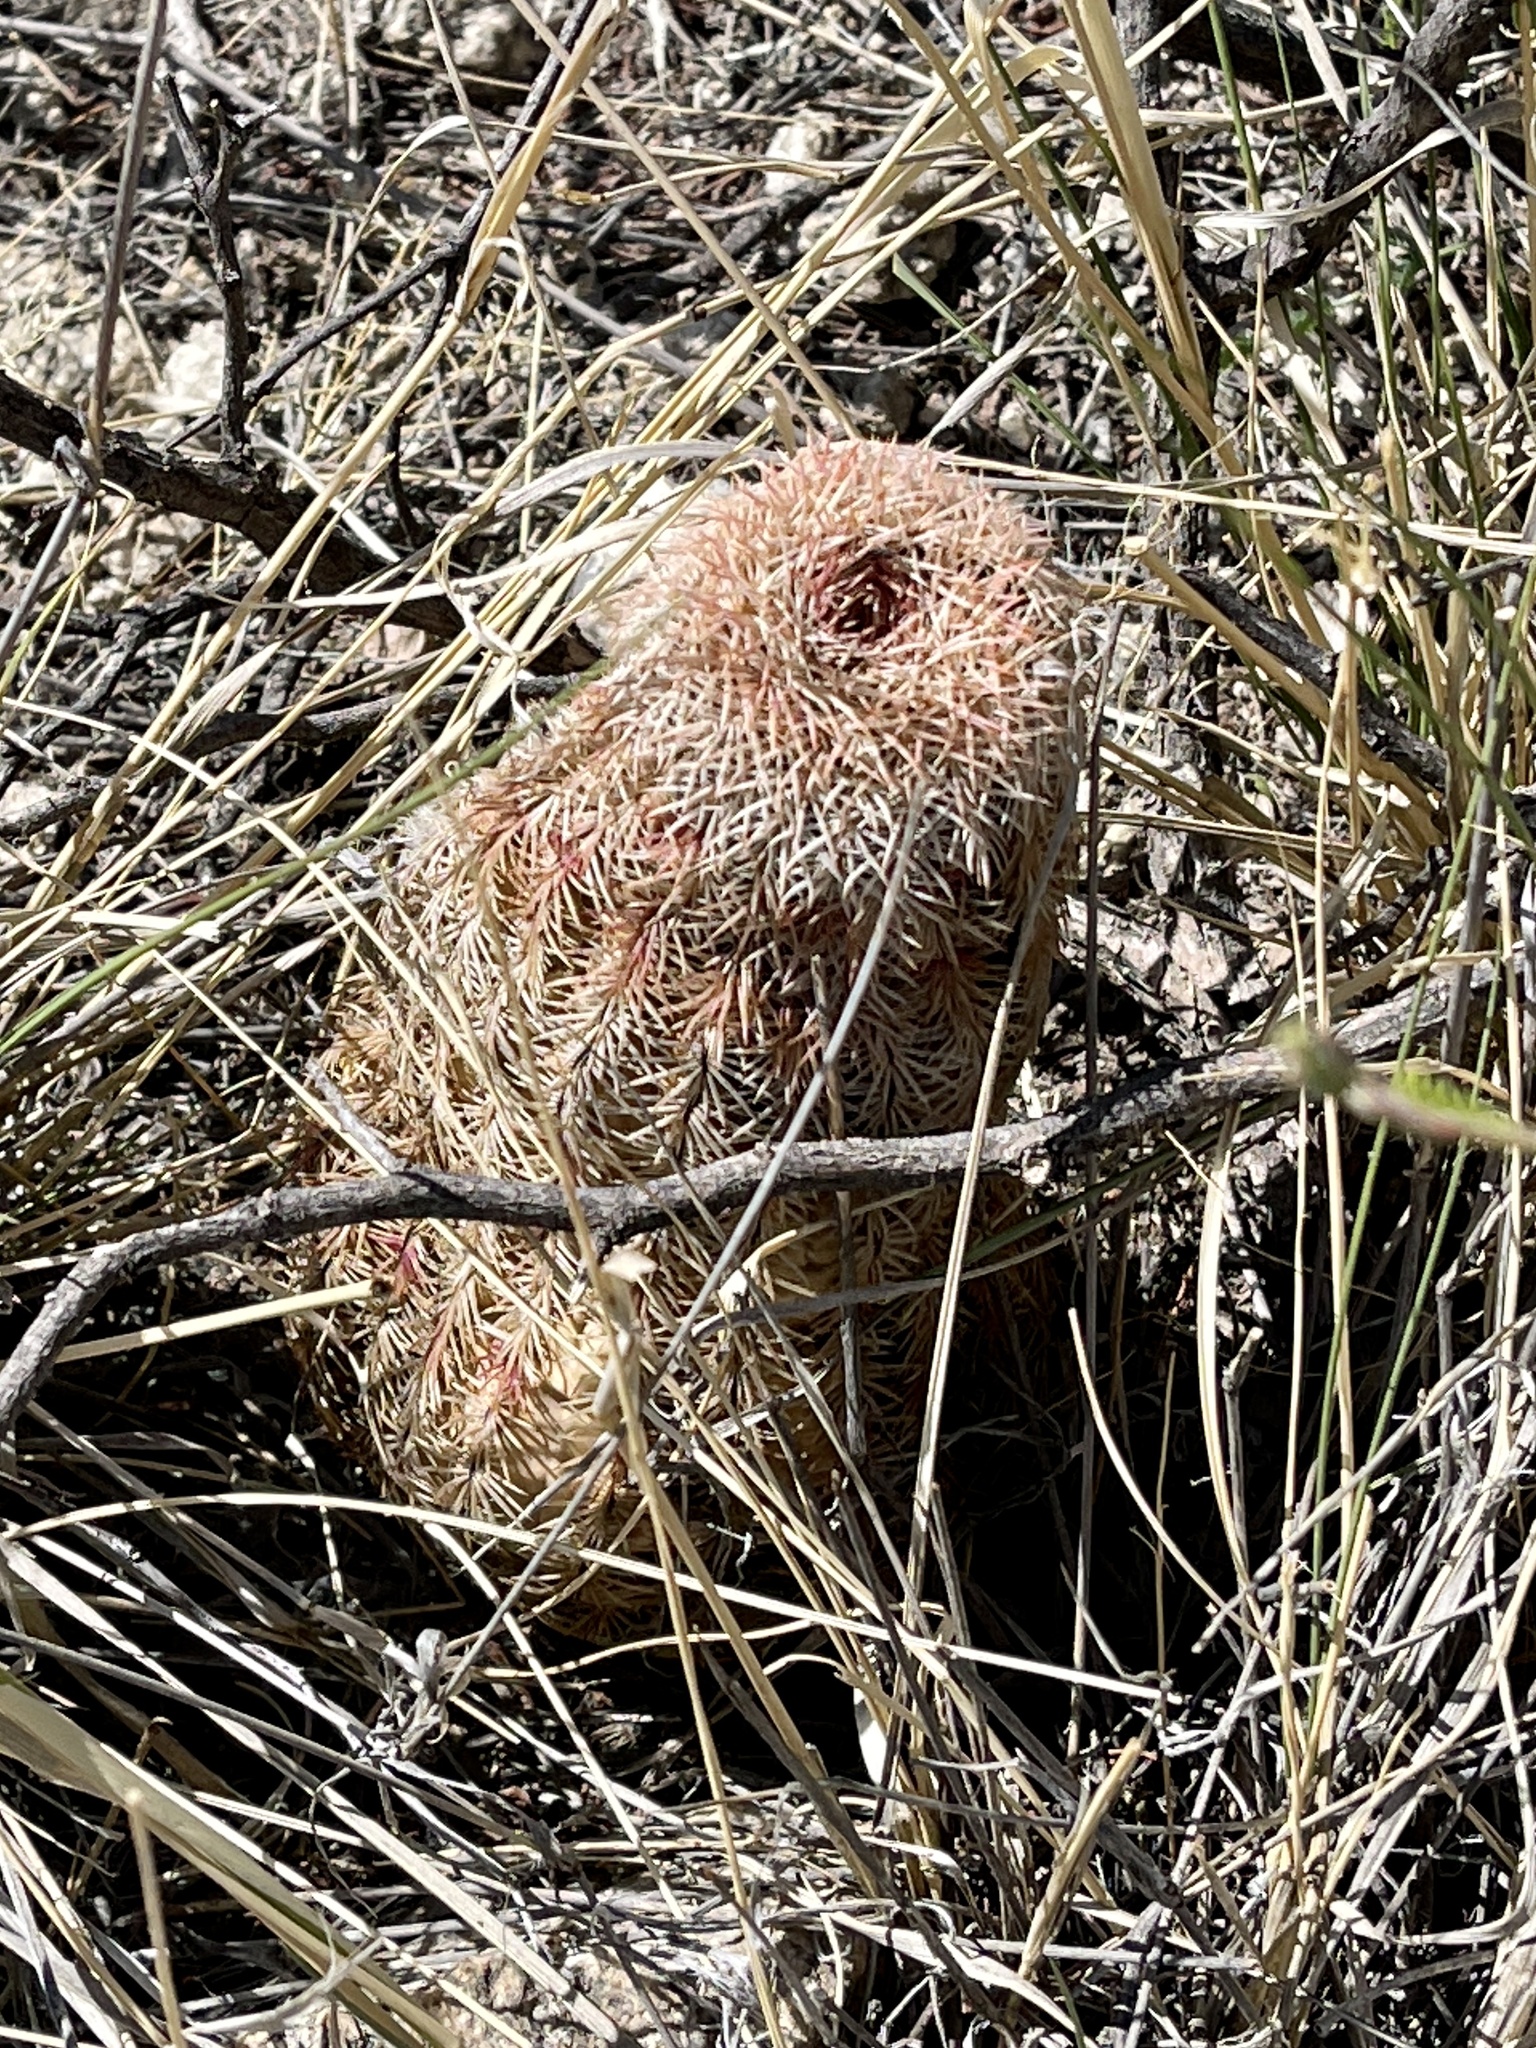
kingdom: Plantae
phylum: Tracheophyta
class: Magnoliopsida
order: Caryophyllales
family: Cactaceae
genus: Echinocereus
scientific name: Echinocereus rigidissimus
